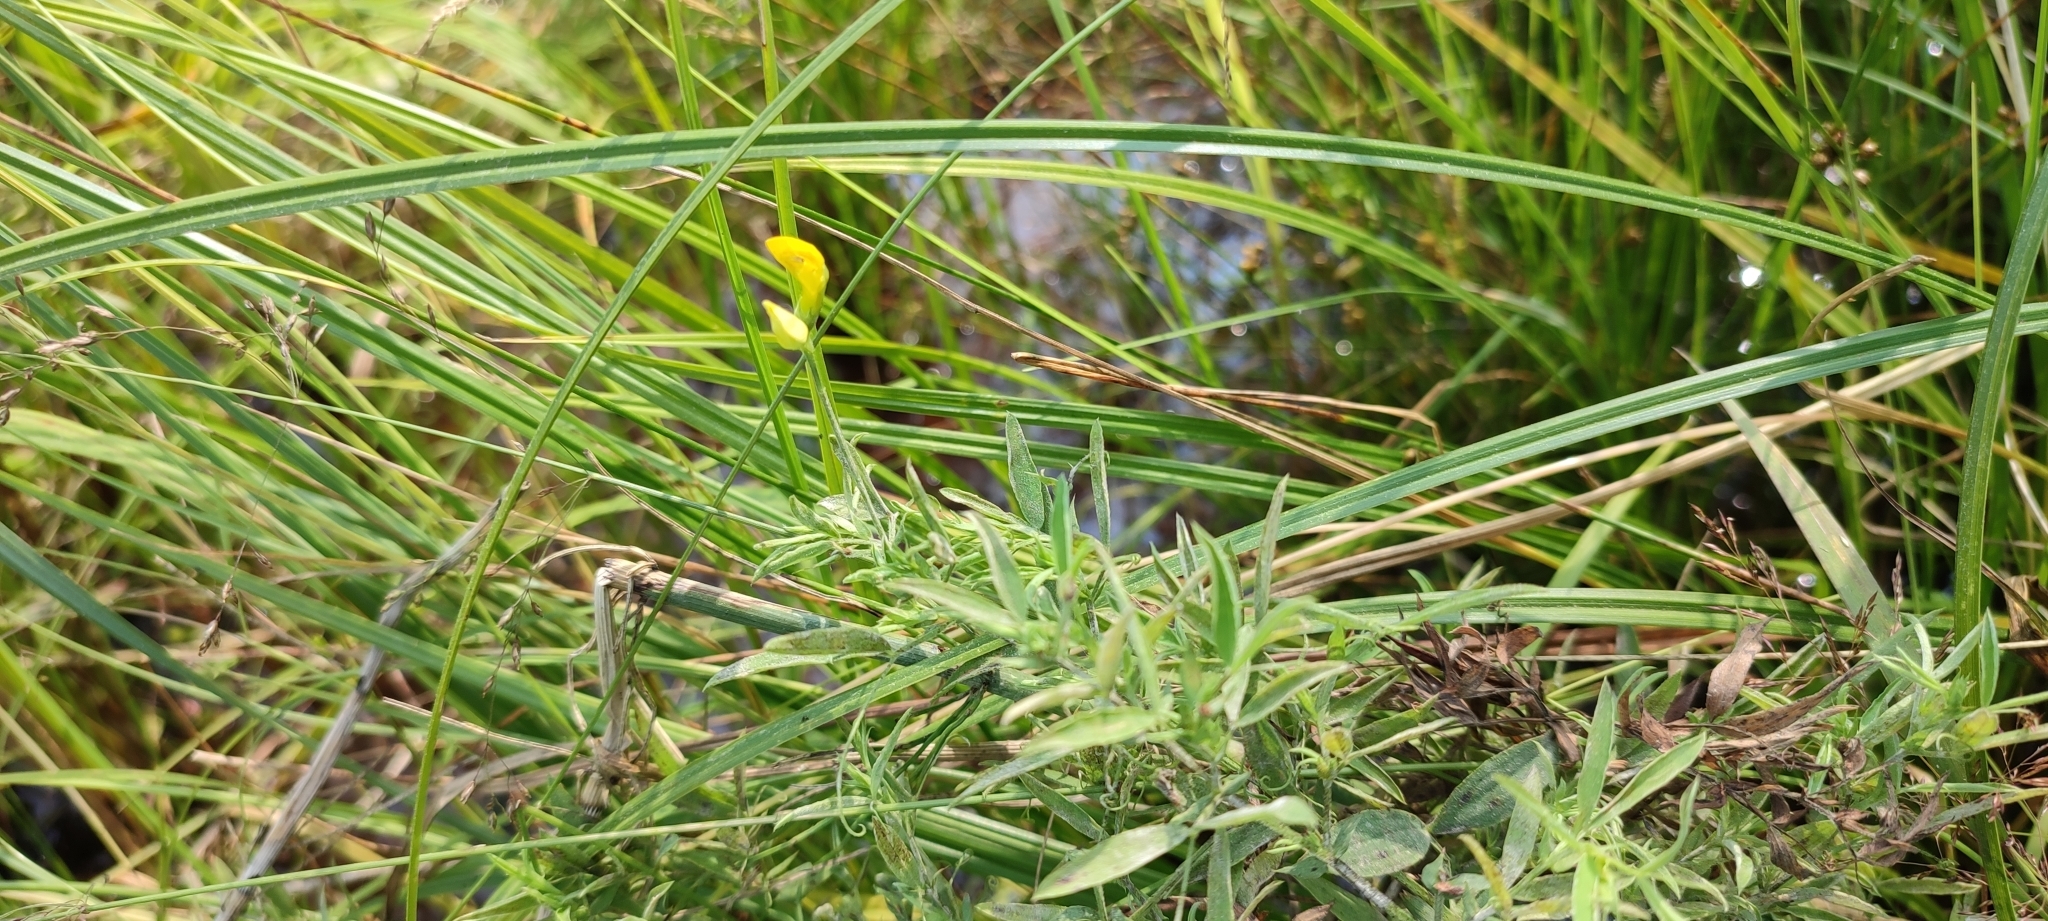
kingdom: Plantae
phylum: Tracheophyta
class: Magnoliopsida
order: Fabales
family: Fabaceae
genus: Lathyrus
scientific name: Lathyrus pratensis
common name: Meadow vetchling
